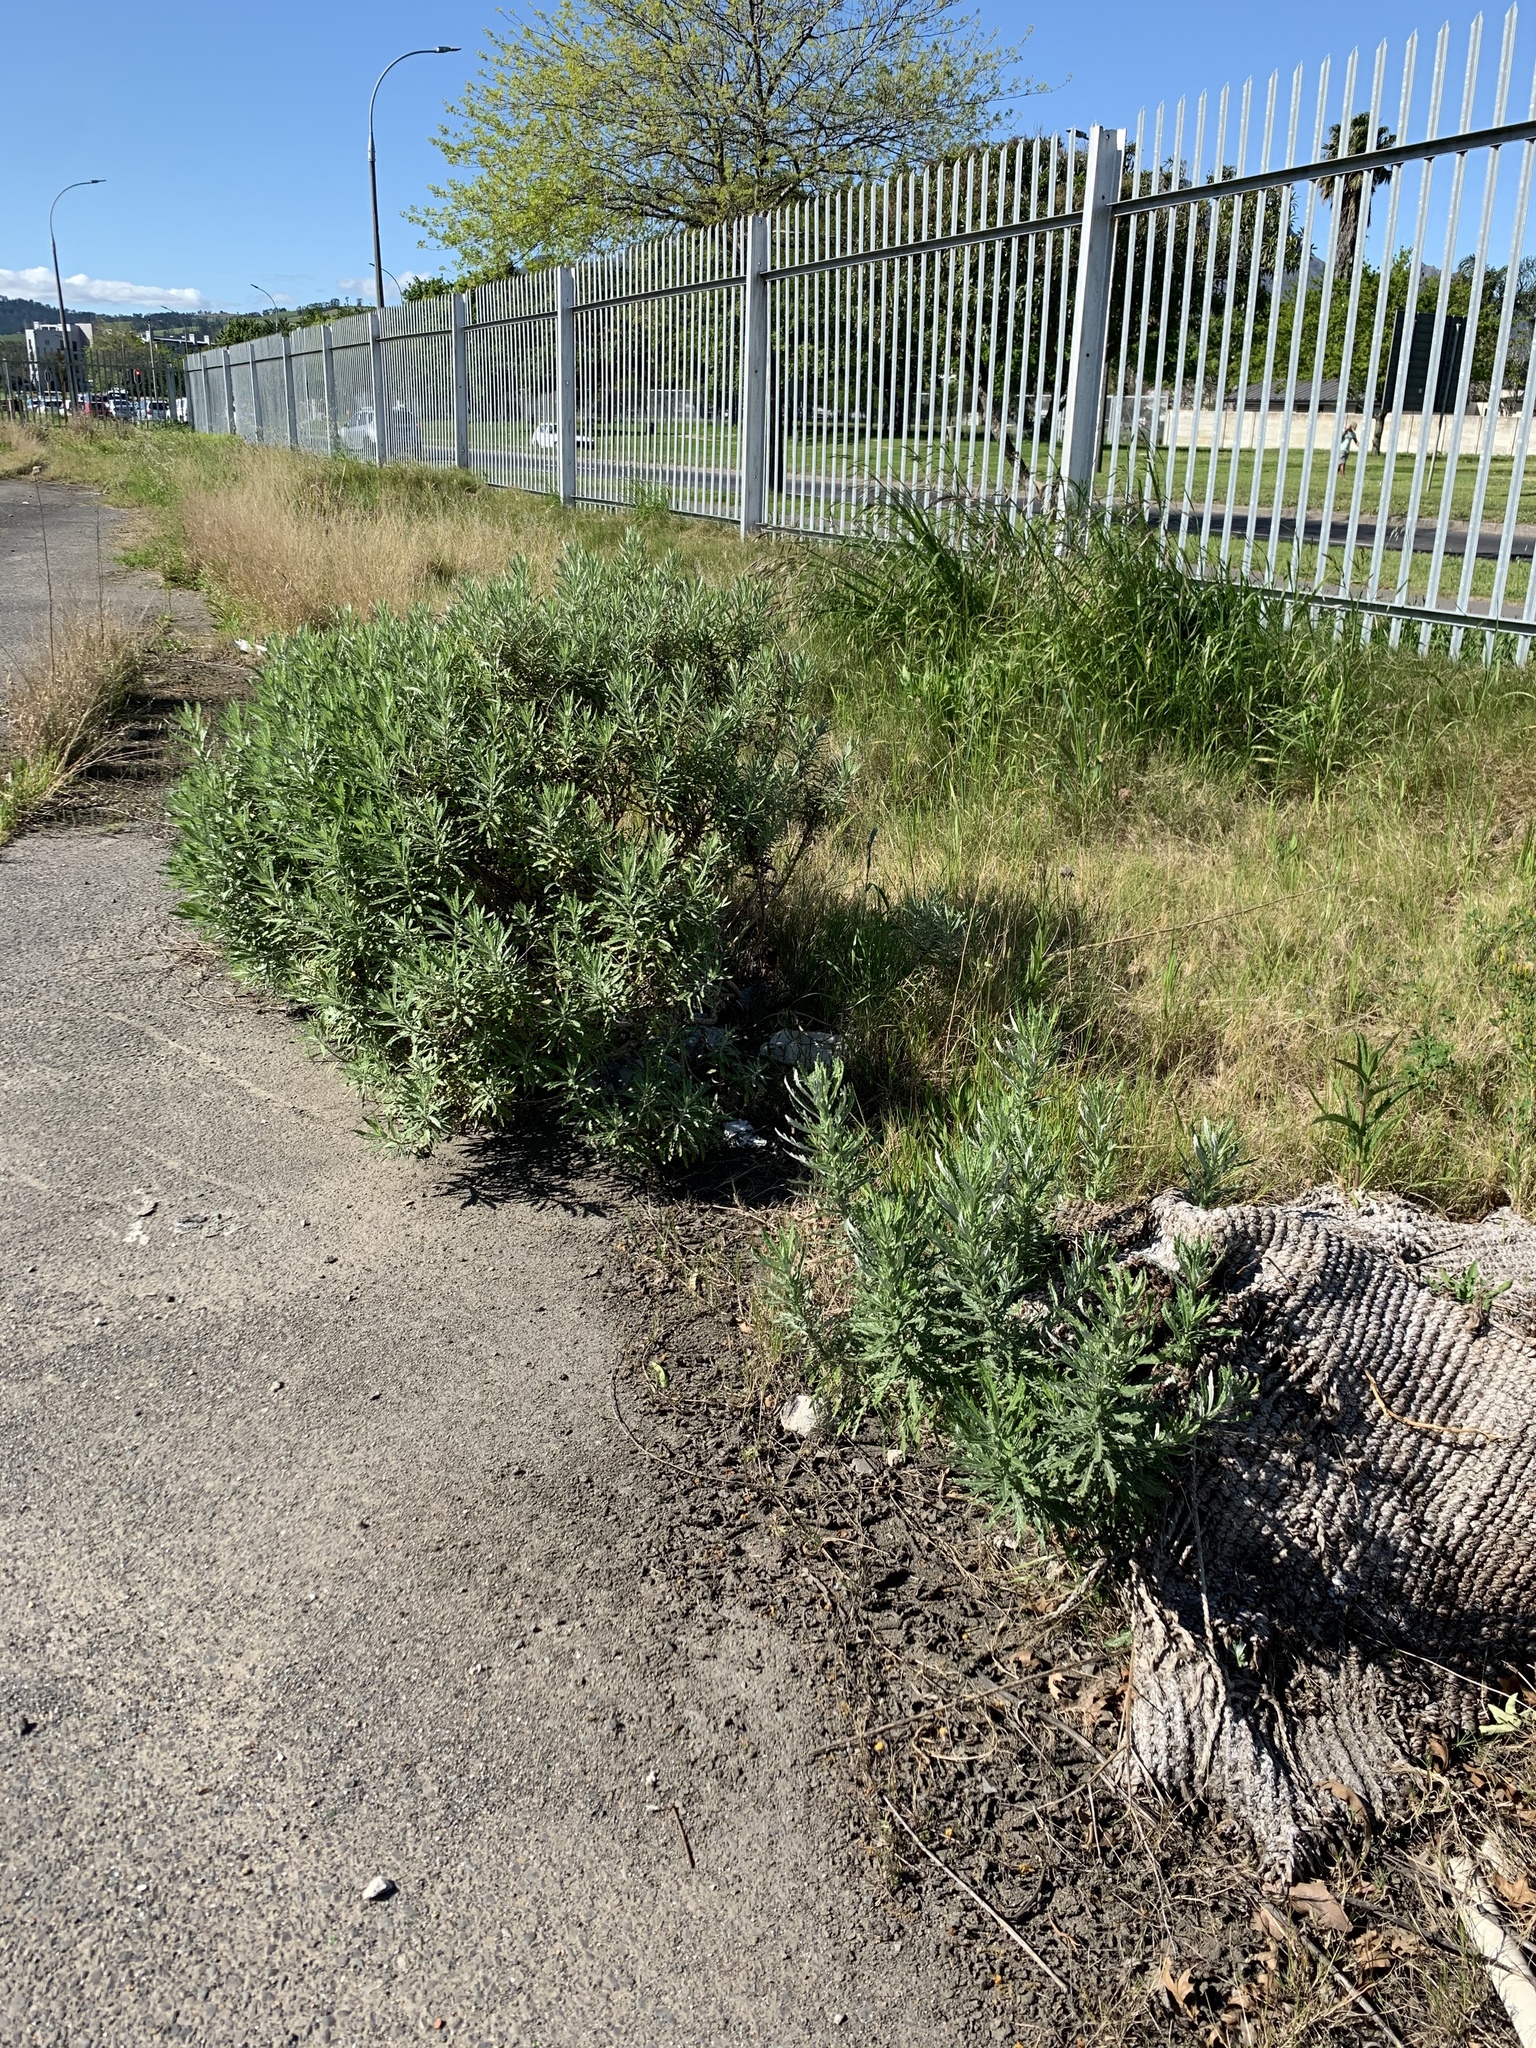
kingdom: Plantae
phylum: Tracheophyta
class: Magnoliopsida
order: Asterales
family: Asteraceae
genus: Senecio
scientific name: Senecio pterophorus
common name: Shoddy ragwort
